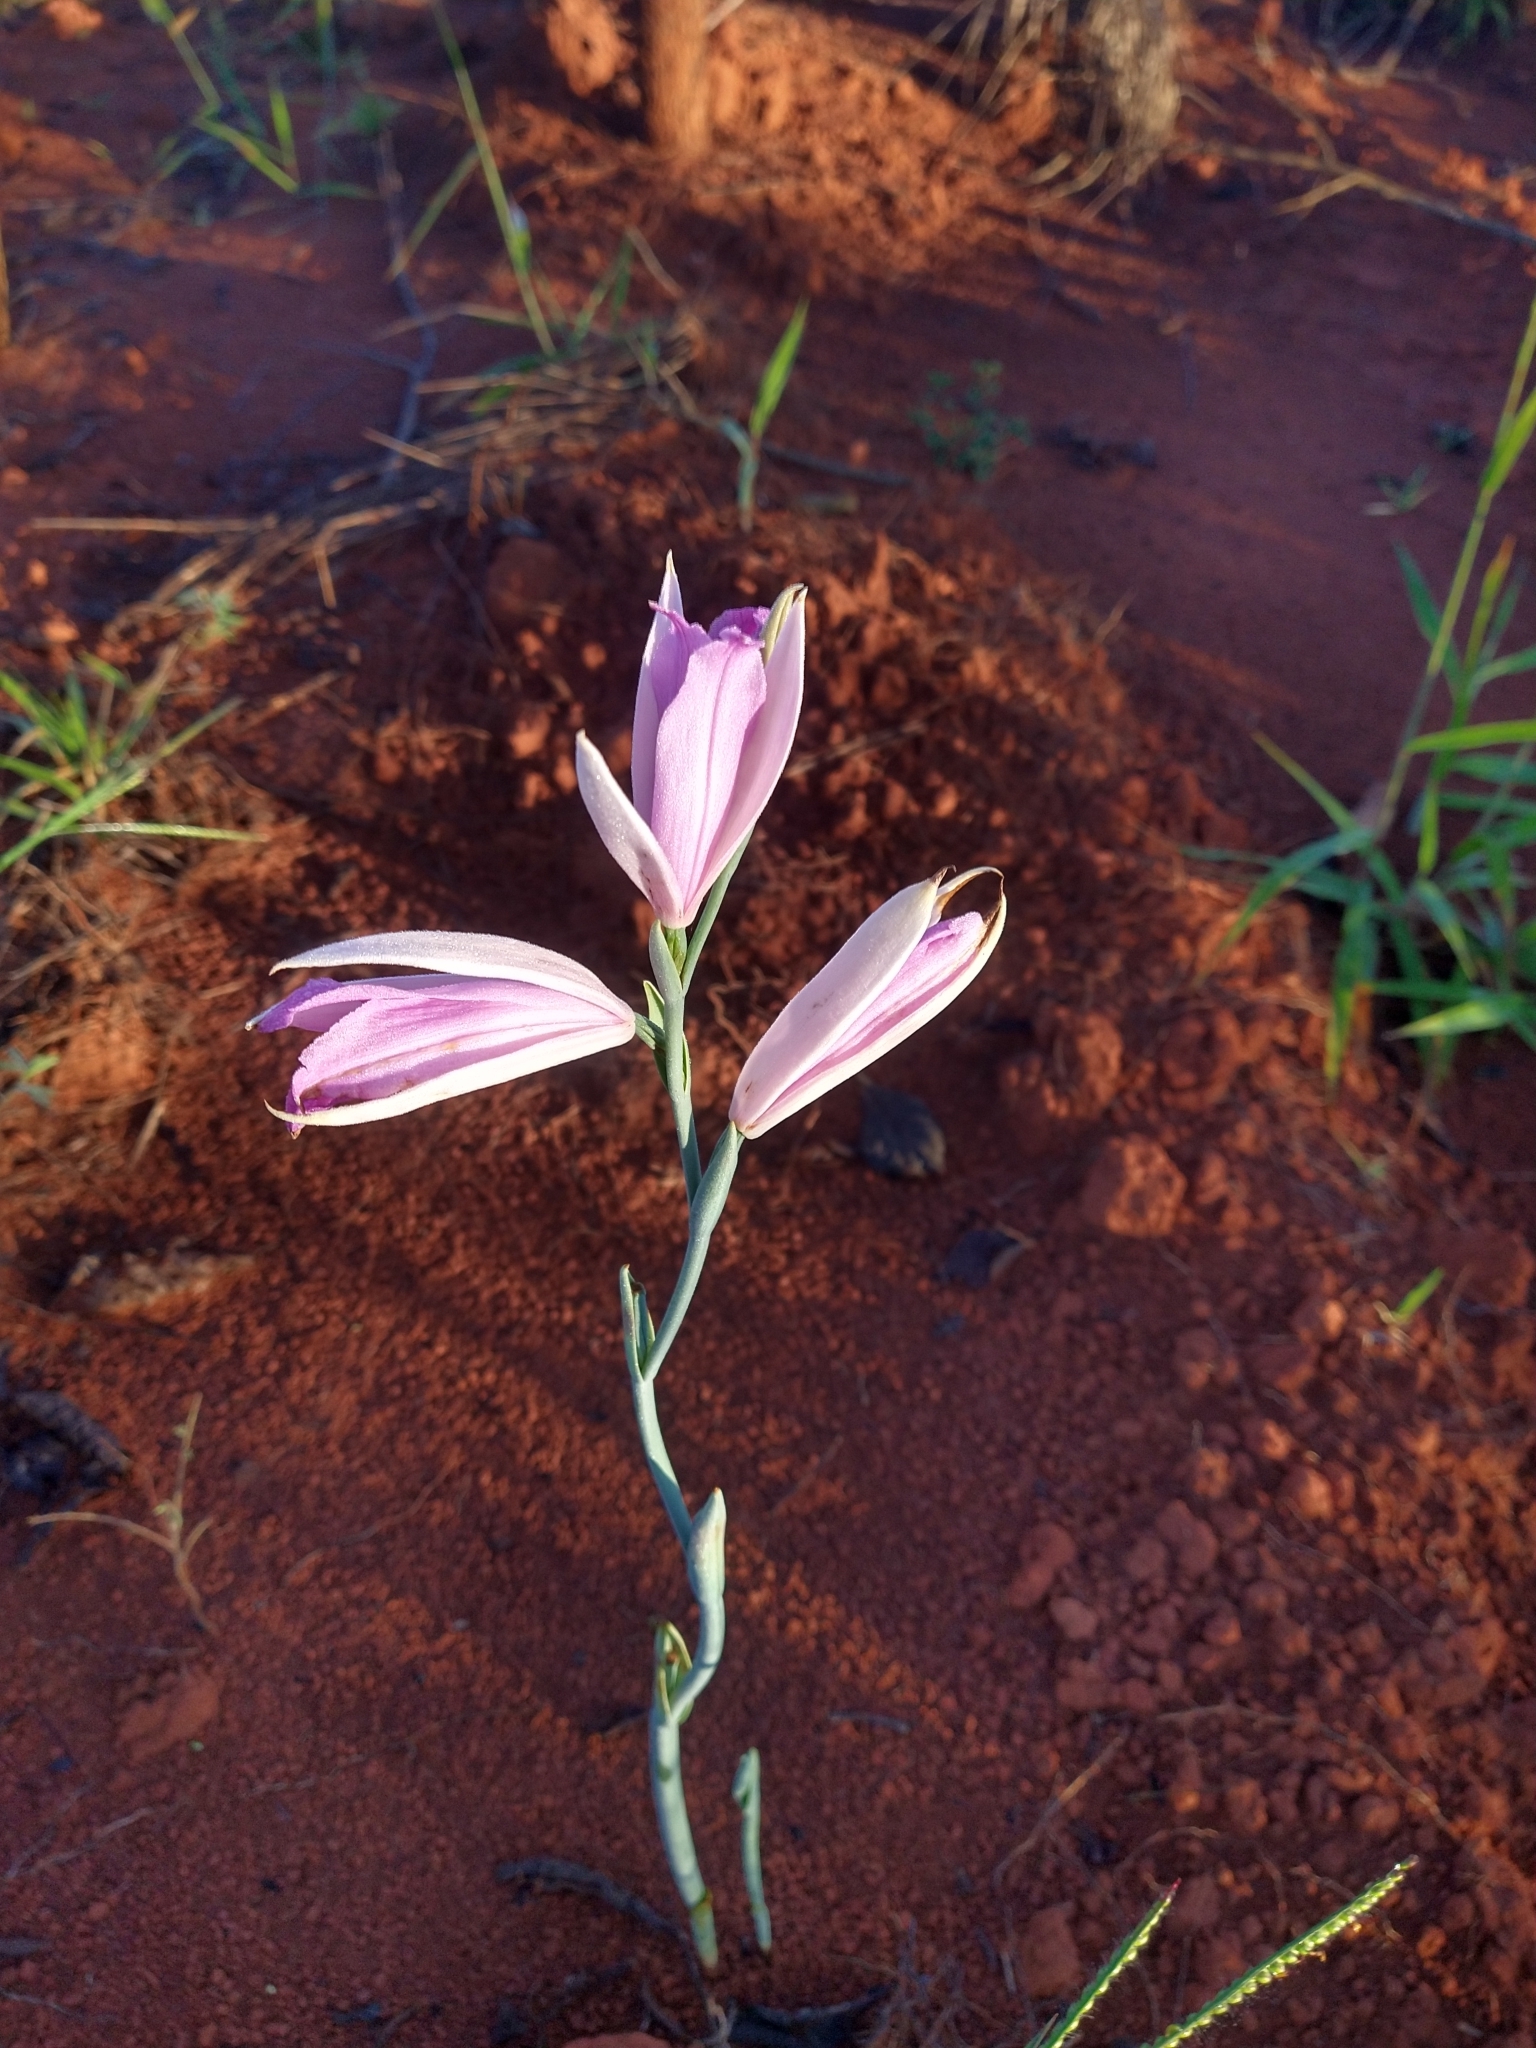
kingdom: Plantae
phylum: Tracheophyta
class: Liliopsida
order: Asparagales
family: Orchidaceae
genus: Cleistes
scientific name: Cleistes paranaensis
